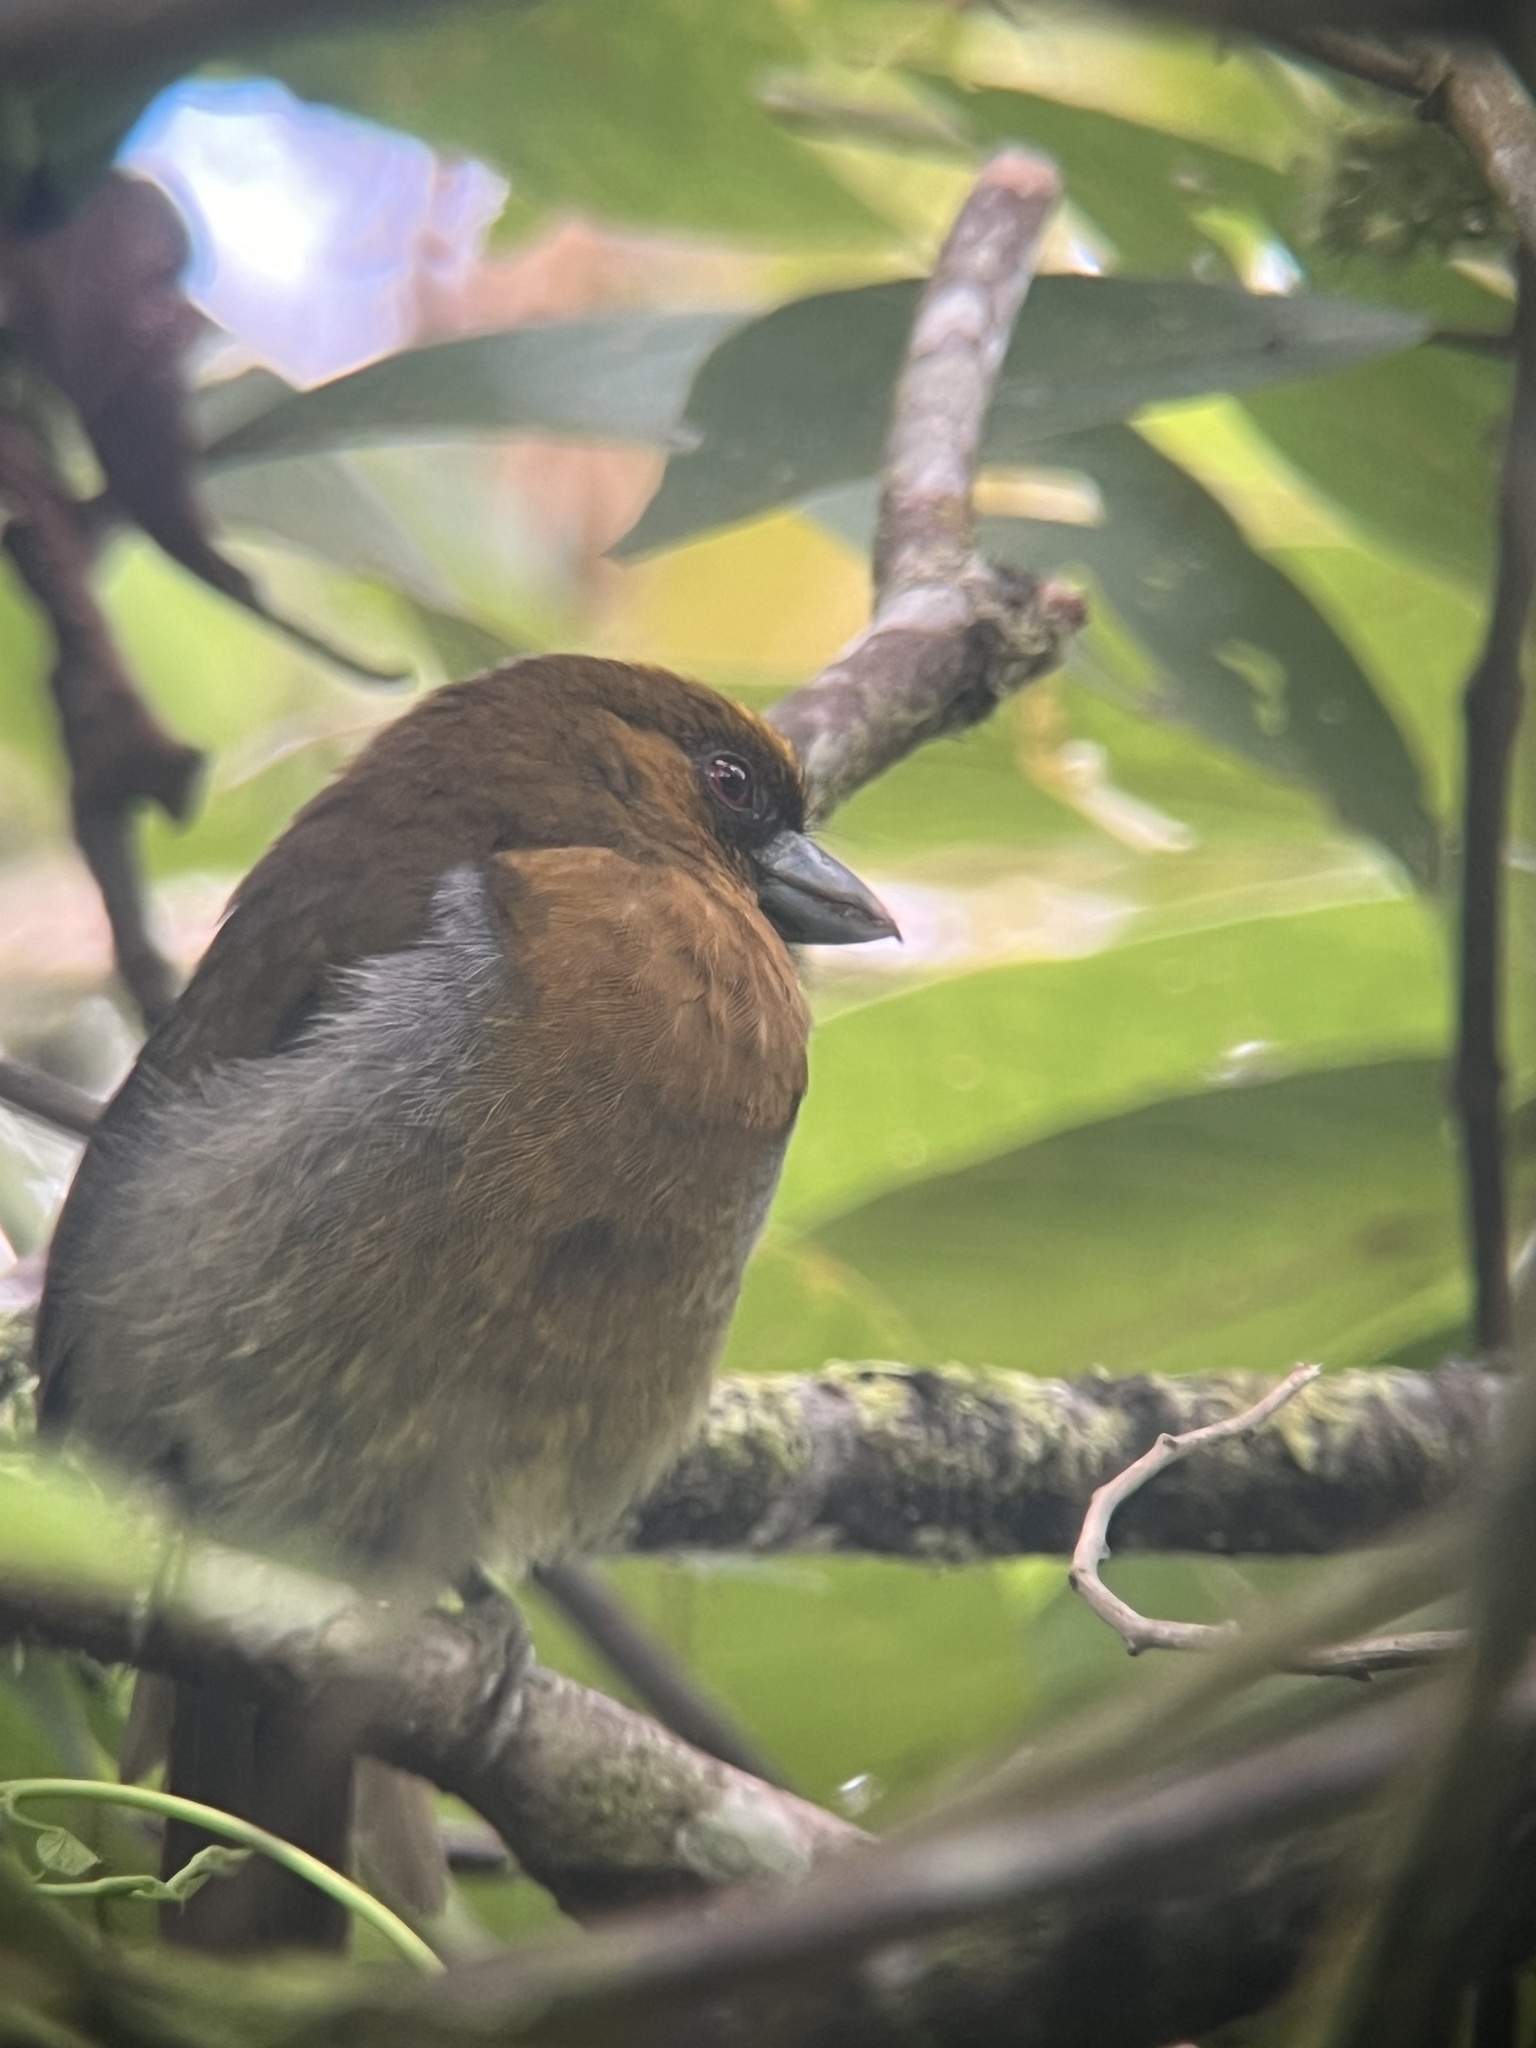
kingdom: Animalia
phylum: Chordata
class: Aves
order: Piciformes
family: Semnornithidae
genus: Semnornis
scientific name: Semnornis frantzii
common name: Prong-billed barbet
